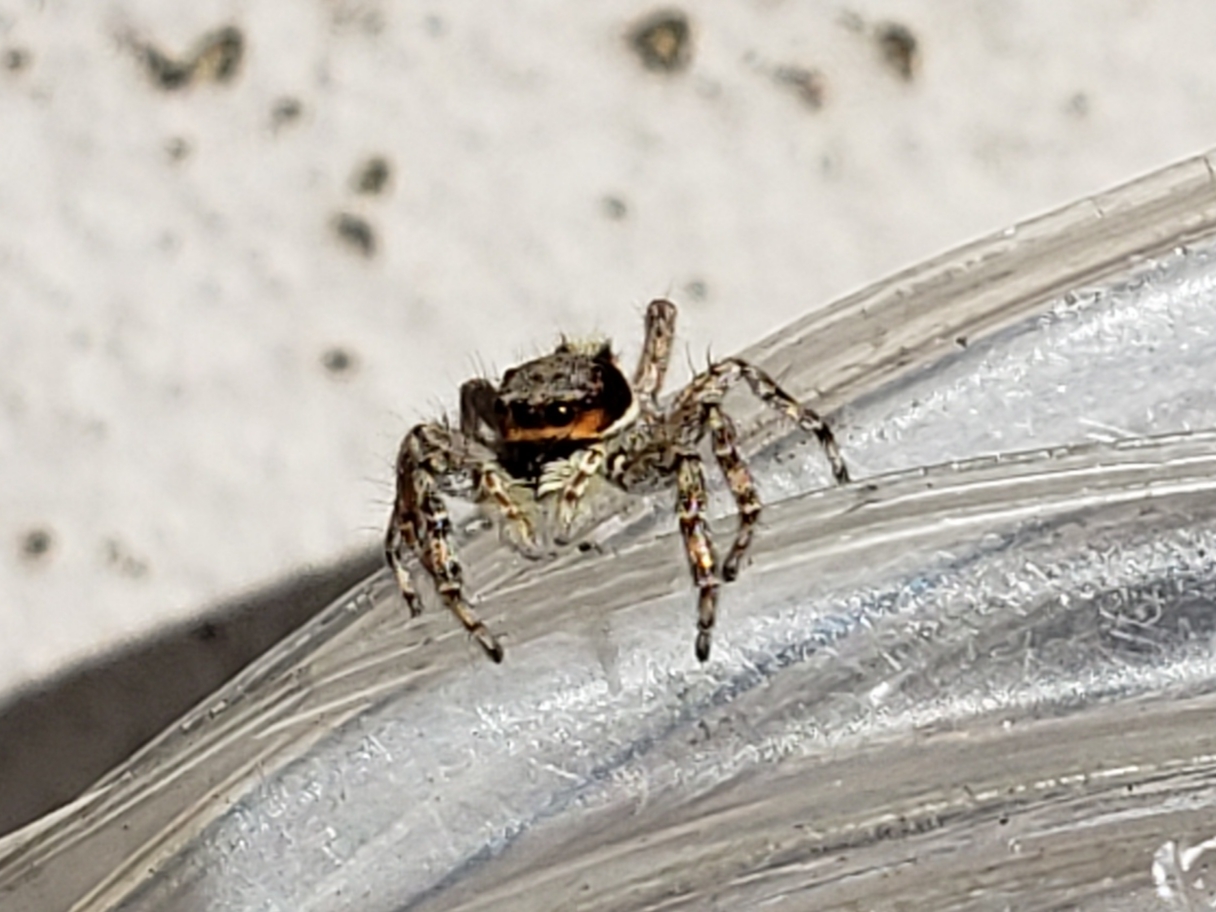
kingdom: Animalia
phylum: Arthropoda
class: Arachnida
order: Araneae
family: Salticidae
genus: Menemerus
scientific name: Menemerus bivittatus
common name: Gray wall jumper
